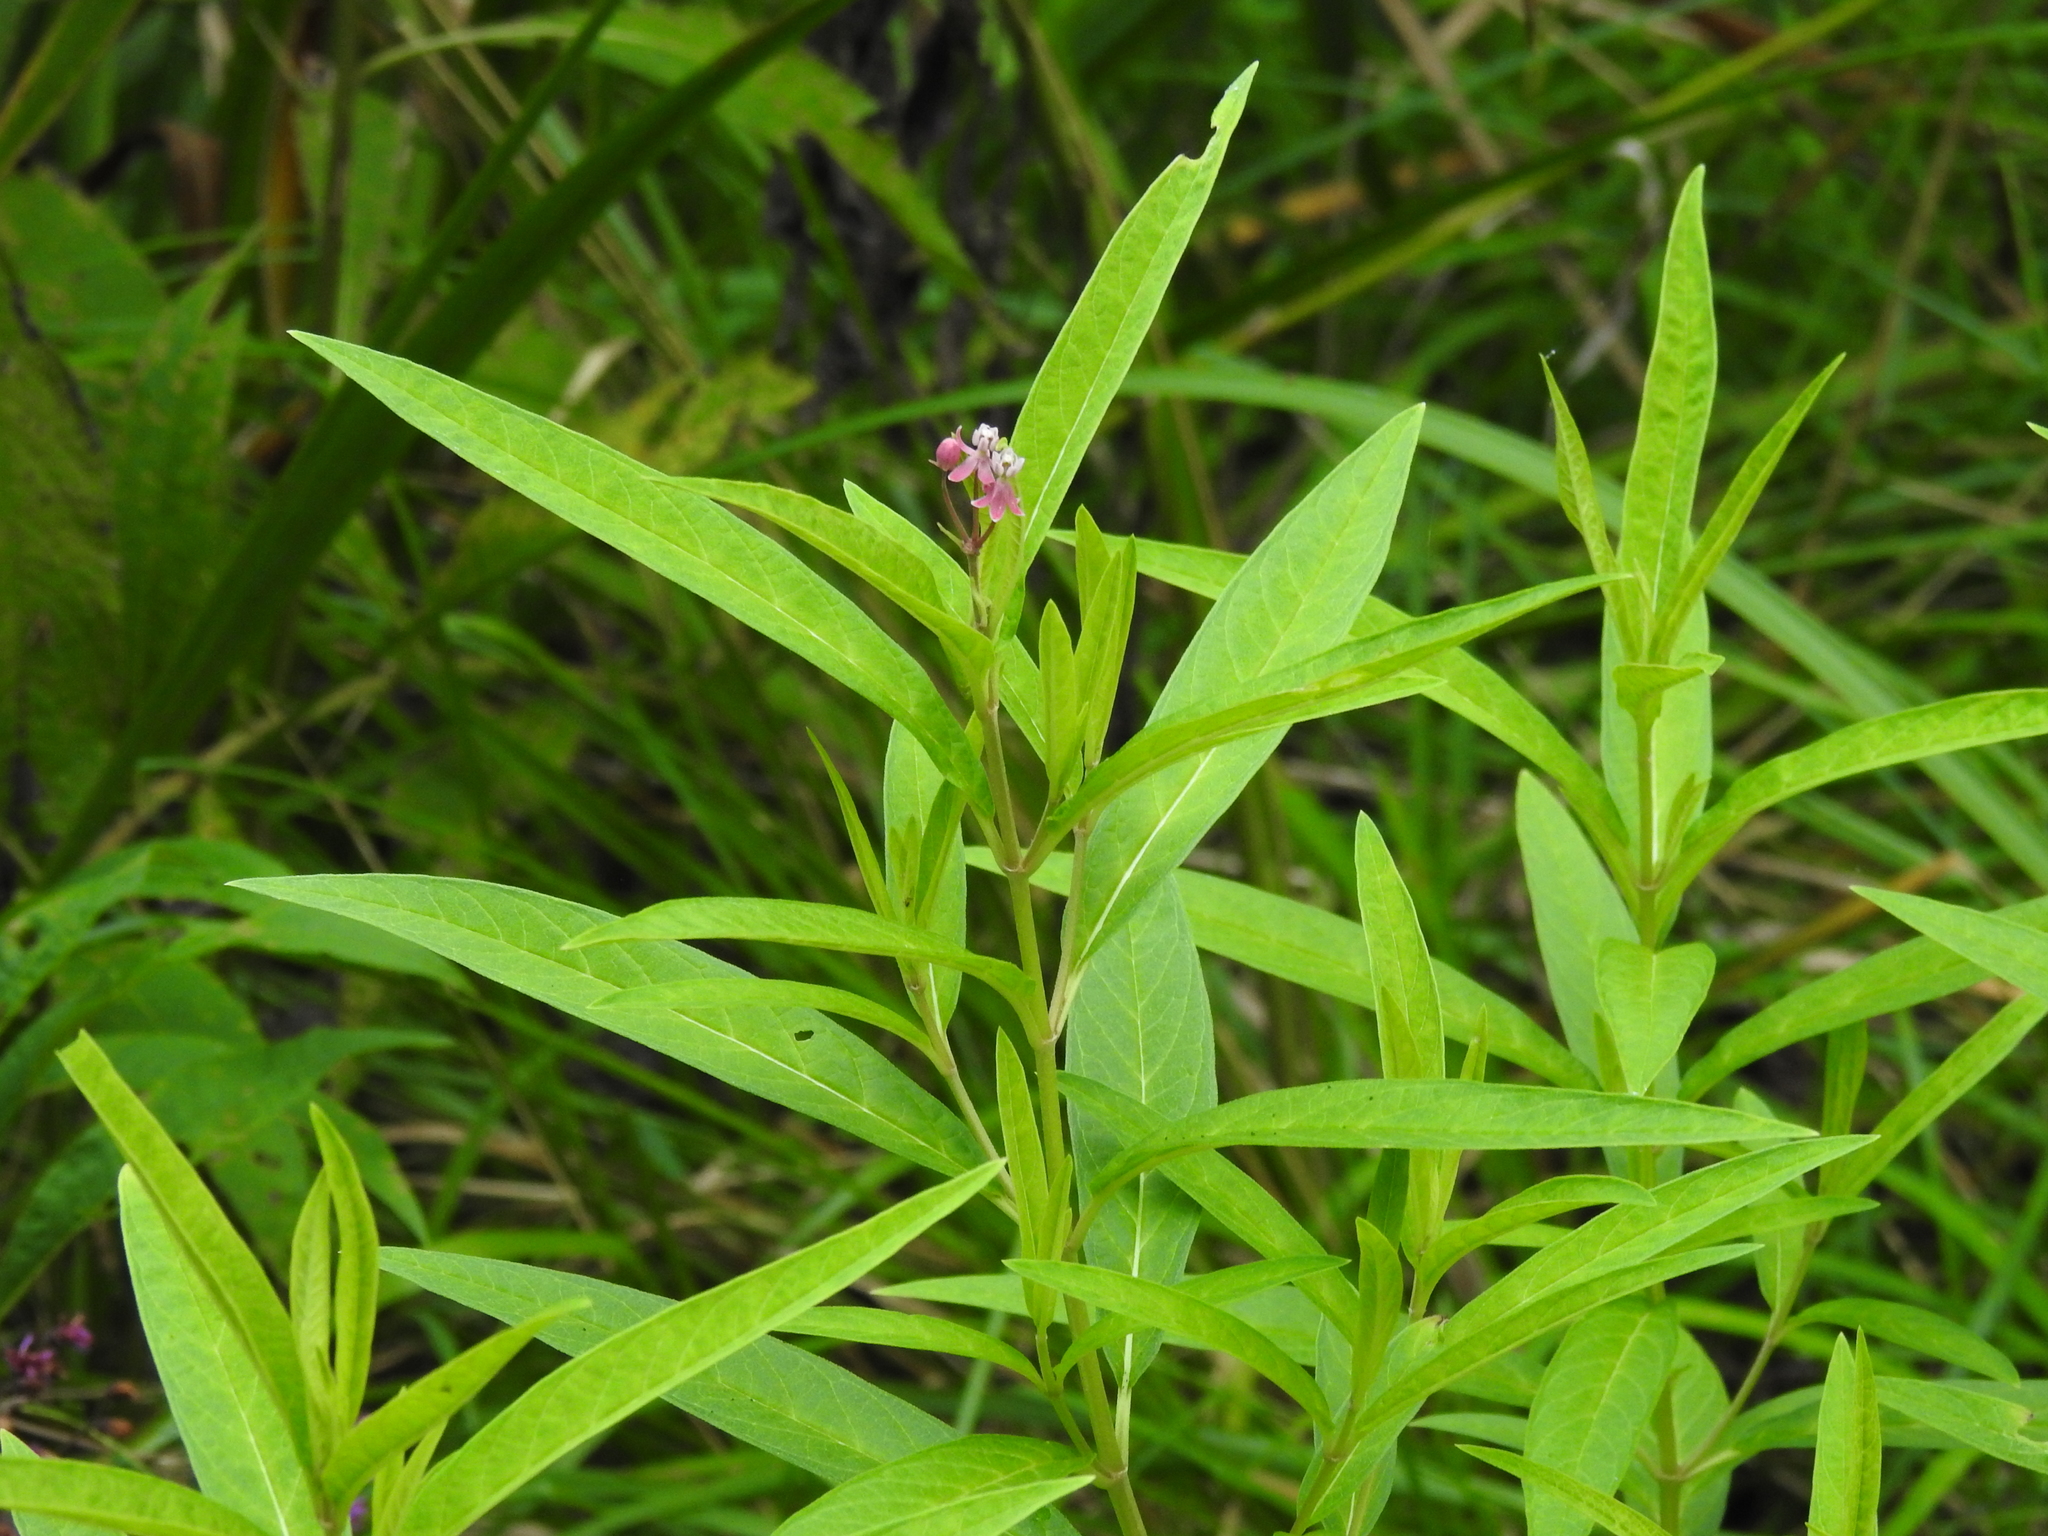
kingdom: Plantae
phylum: Tracheophyta
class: Magnoliopsida
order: Gentianales
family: Apocynaceae
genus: Asclepias
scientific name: Asclepias incarnata
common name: Swamp milkweed
